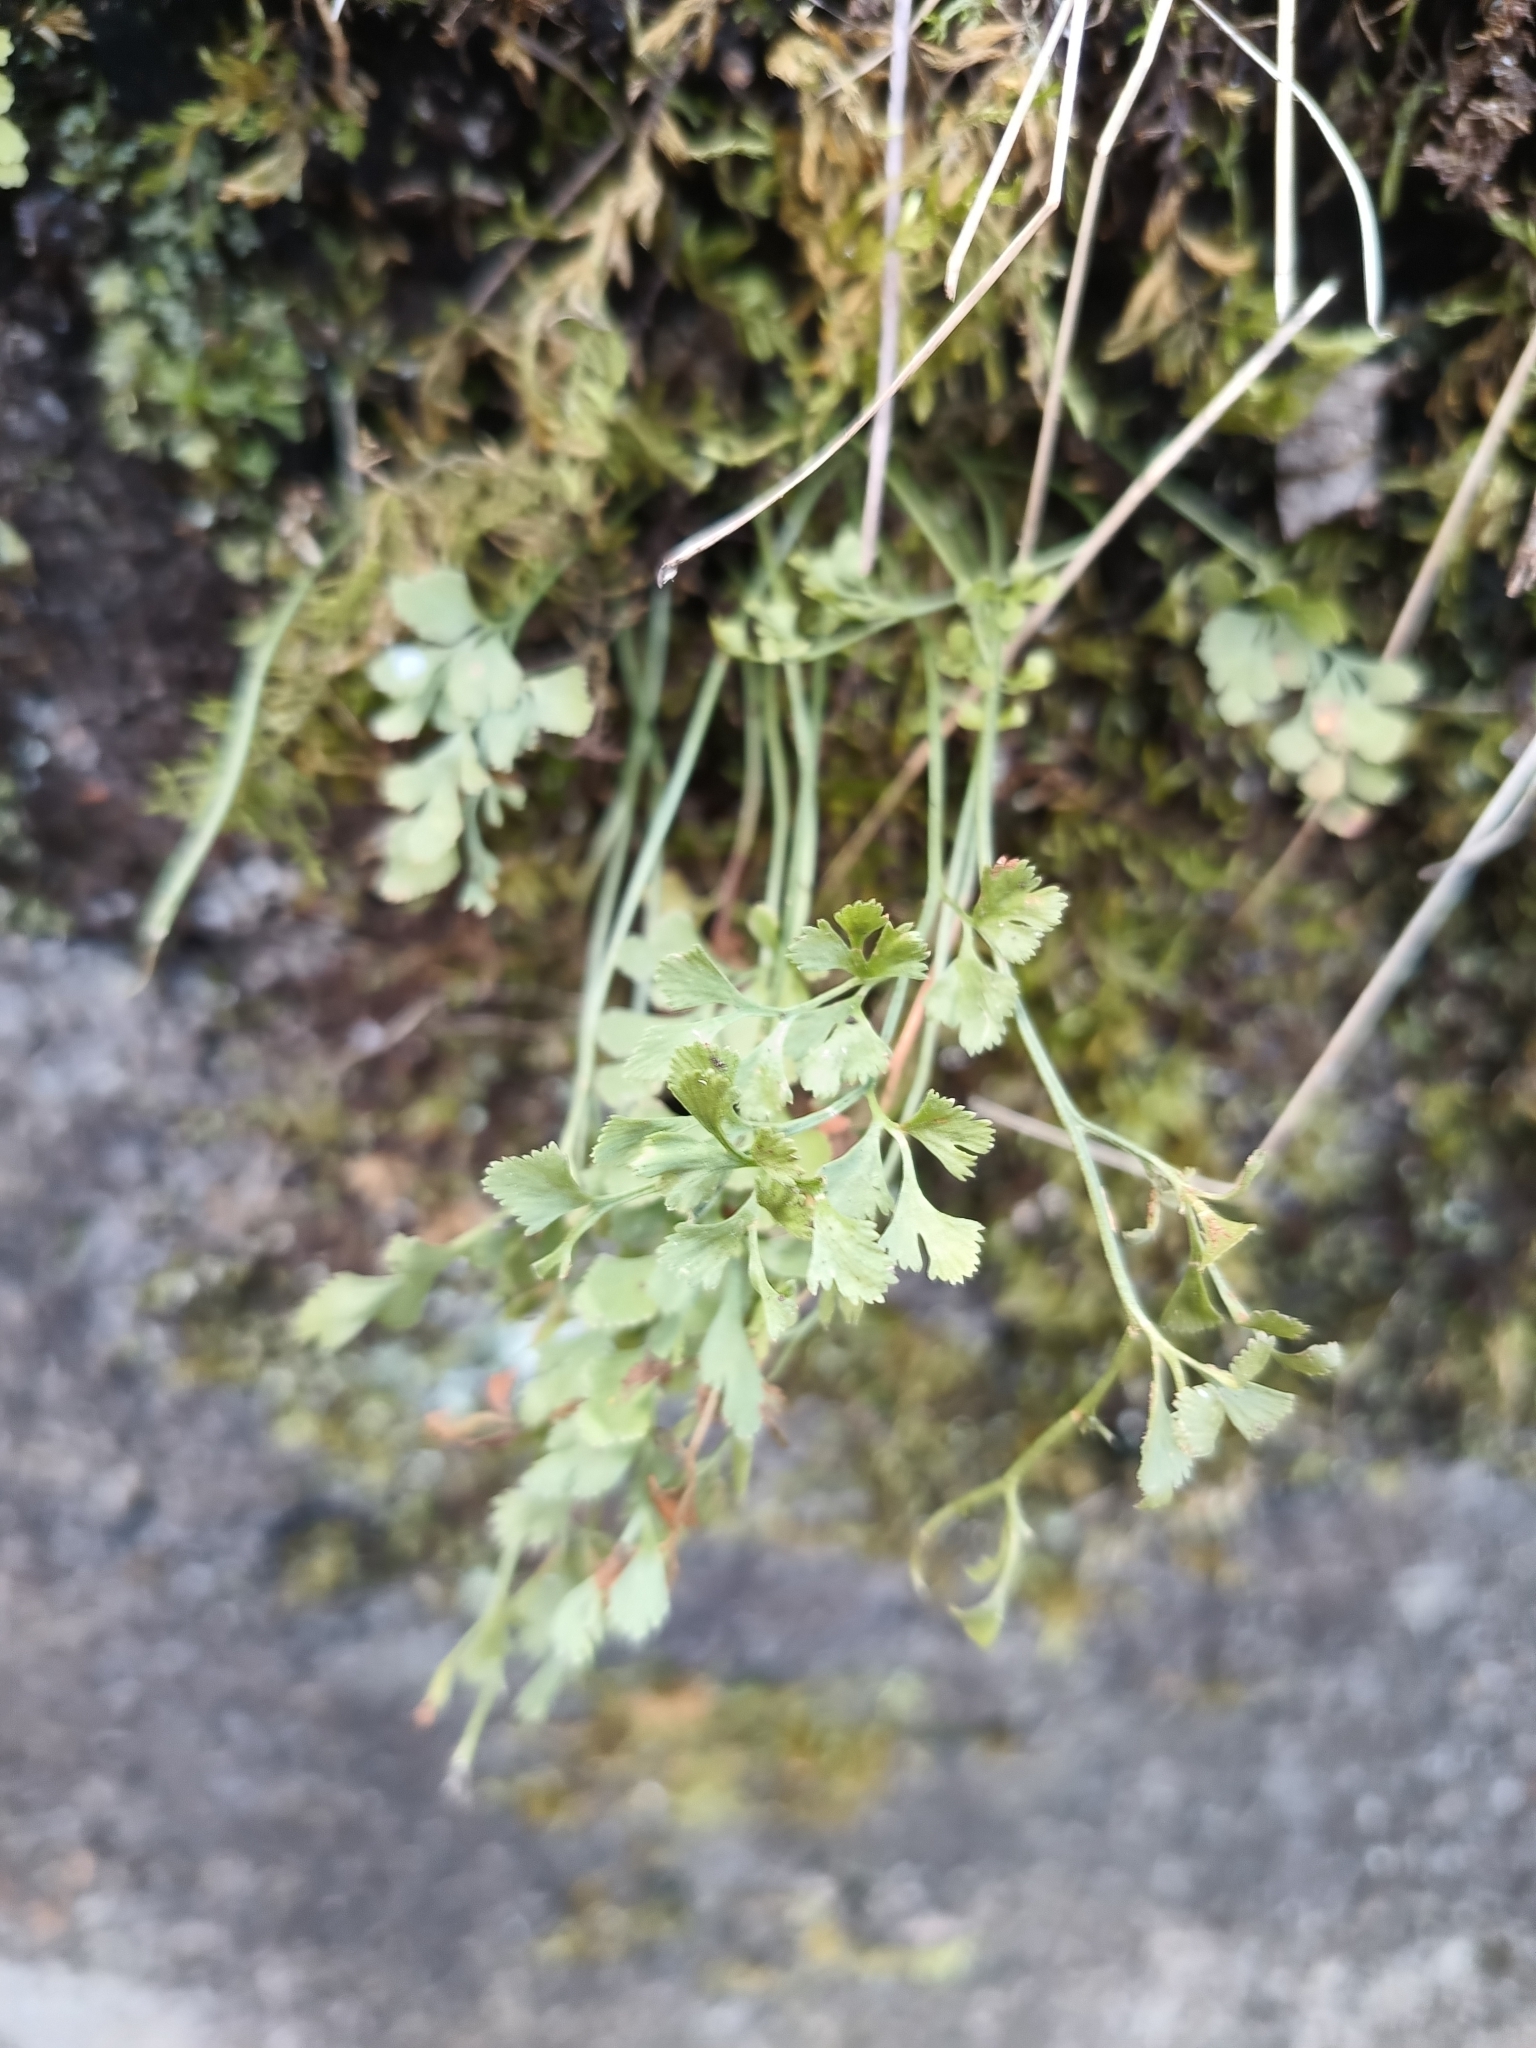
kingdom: Plantae
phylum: Tracheophyta
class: Polypodiopsida
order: Polypodiales
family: Aspleniaceae
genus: Asplenium
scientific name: Asplenium ruta-muraria
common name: Wall-rue
